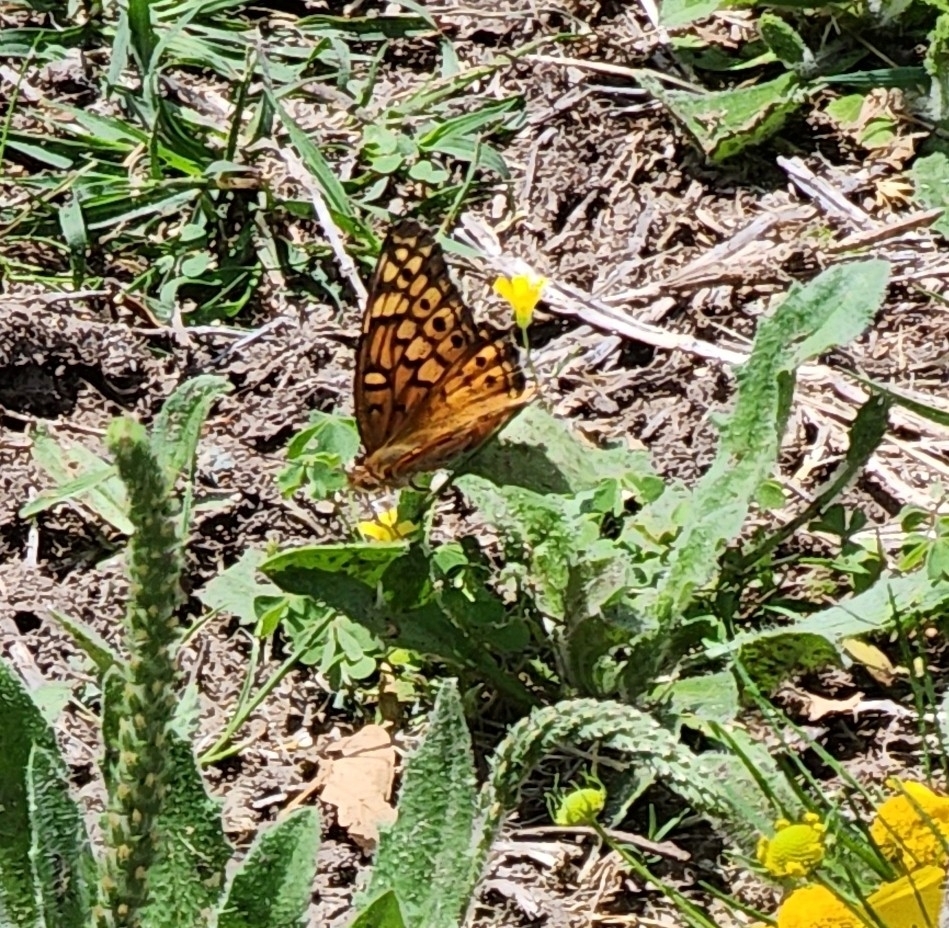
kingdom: Animalia
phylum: Arthropoda
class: Insecta
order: Lepidoptera
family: Nymphalidae
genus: Euptoieta
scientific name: Euptoieta claudia
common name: Variegated fritillary
